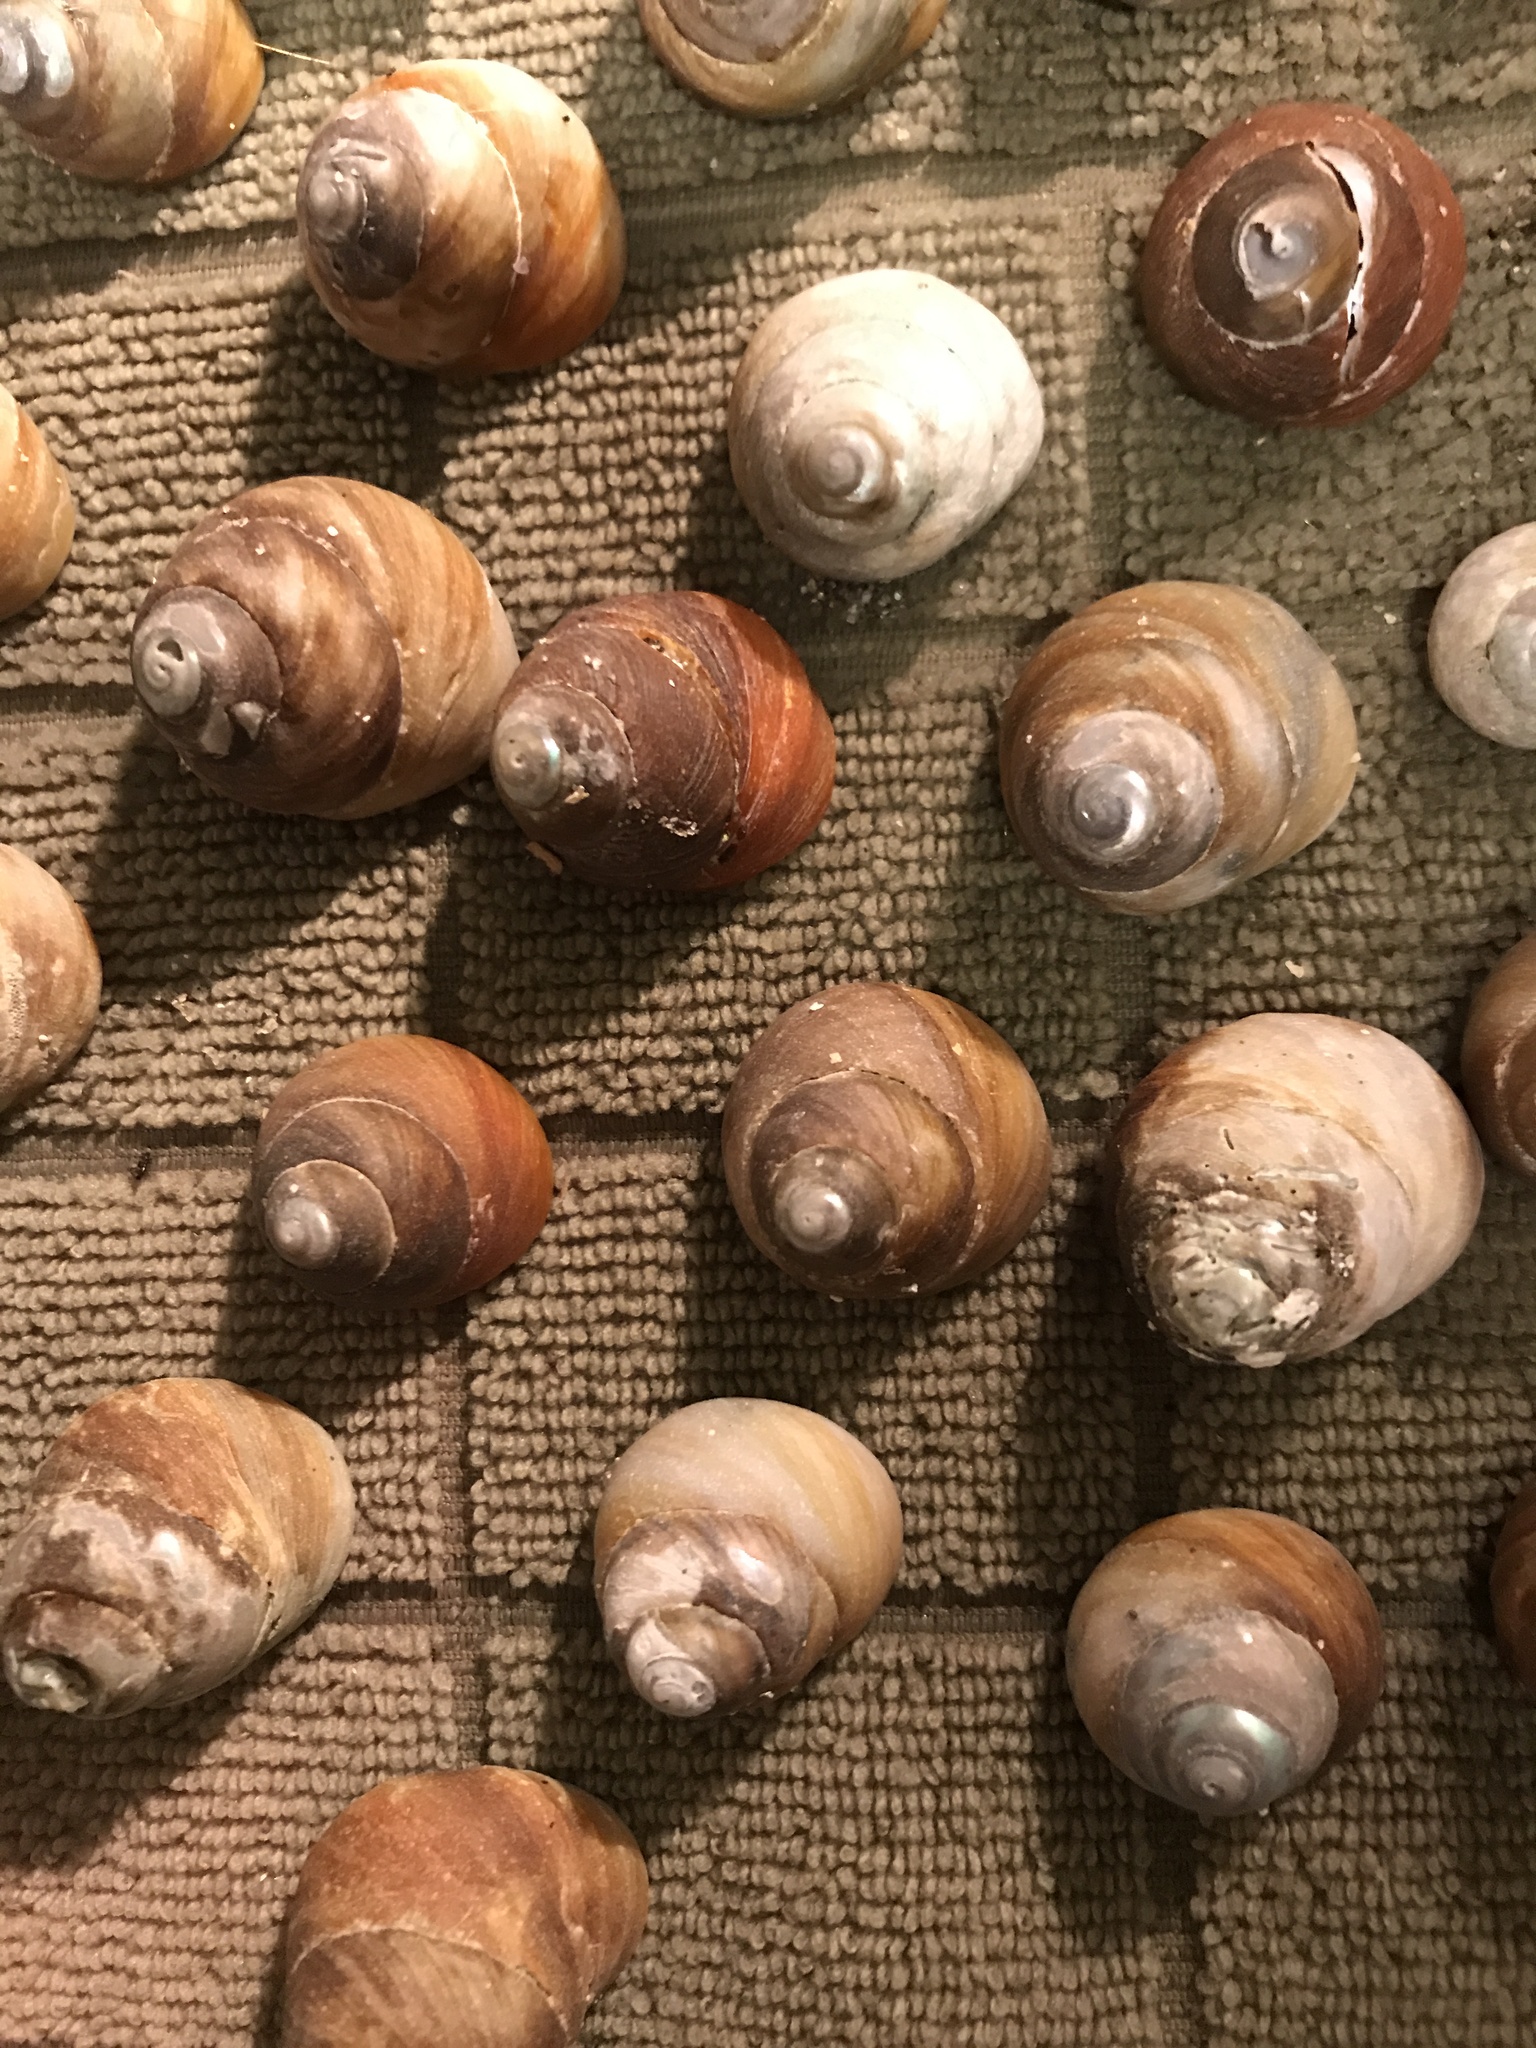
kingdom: Animalia
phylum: Mollusca
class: Gastropoda
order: Trochida
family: Tegulidae
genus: Tegula
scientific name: Tegula brunnea
